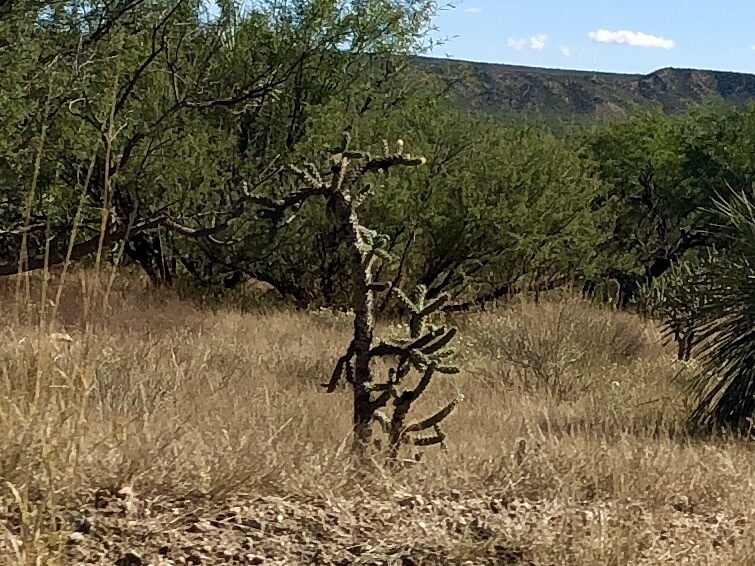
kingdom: Plantae
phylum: Tracheophyta
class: Magnoliopsida
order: Caryophyllales
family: Cactaceae
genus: Cylindropuntia
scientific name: Cylindropuntia imbricata
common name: Candelabrum cactus
